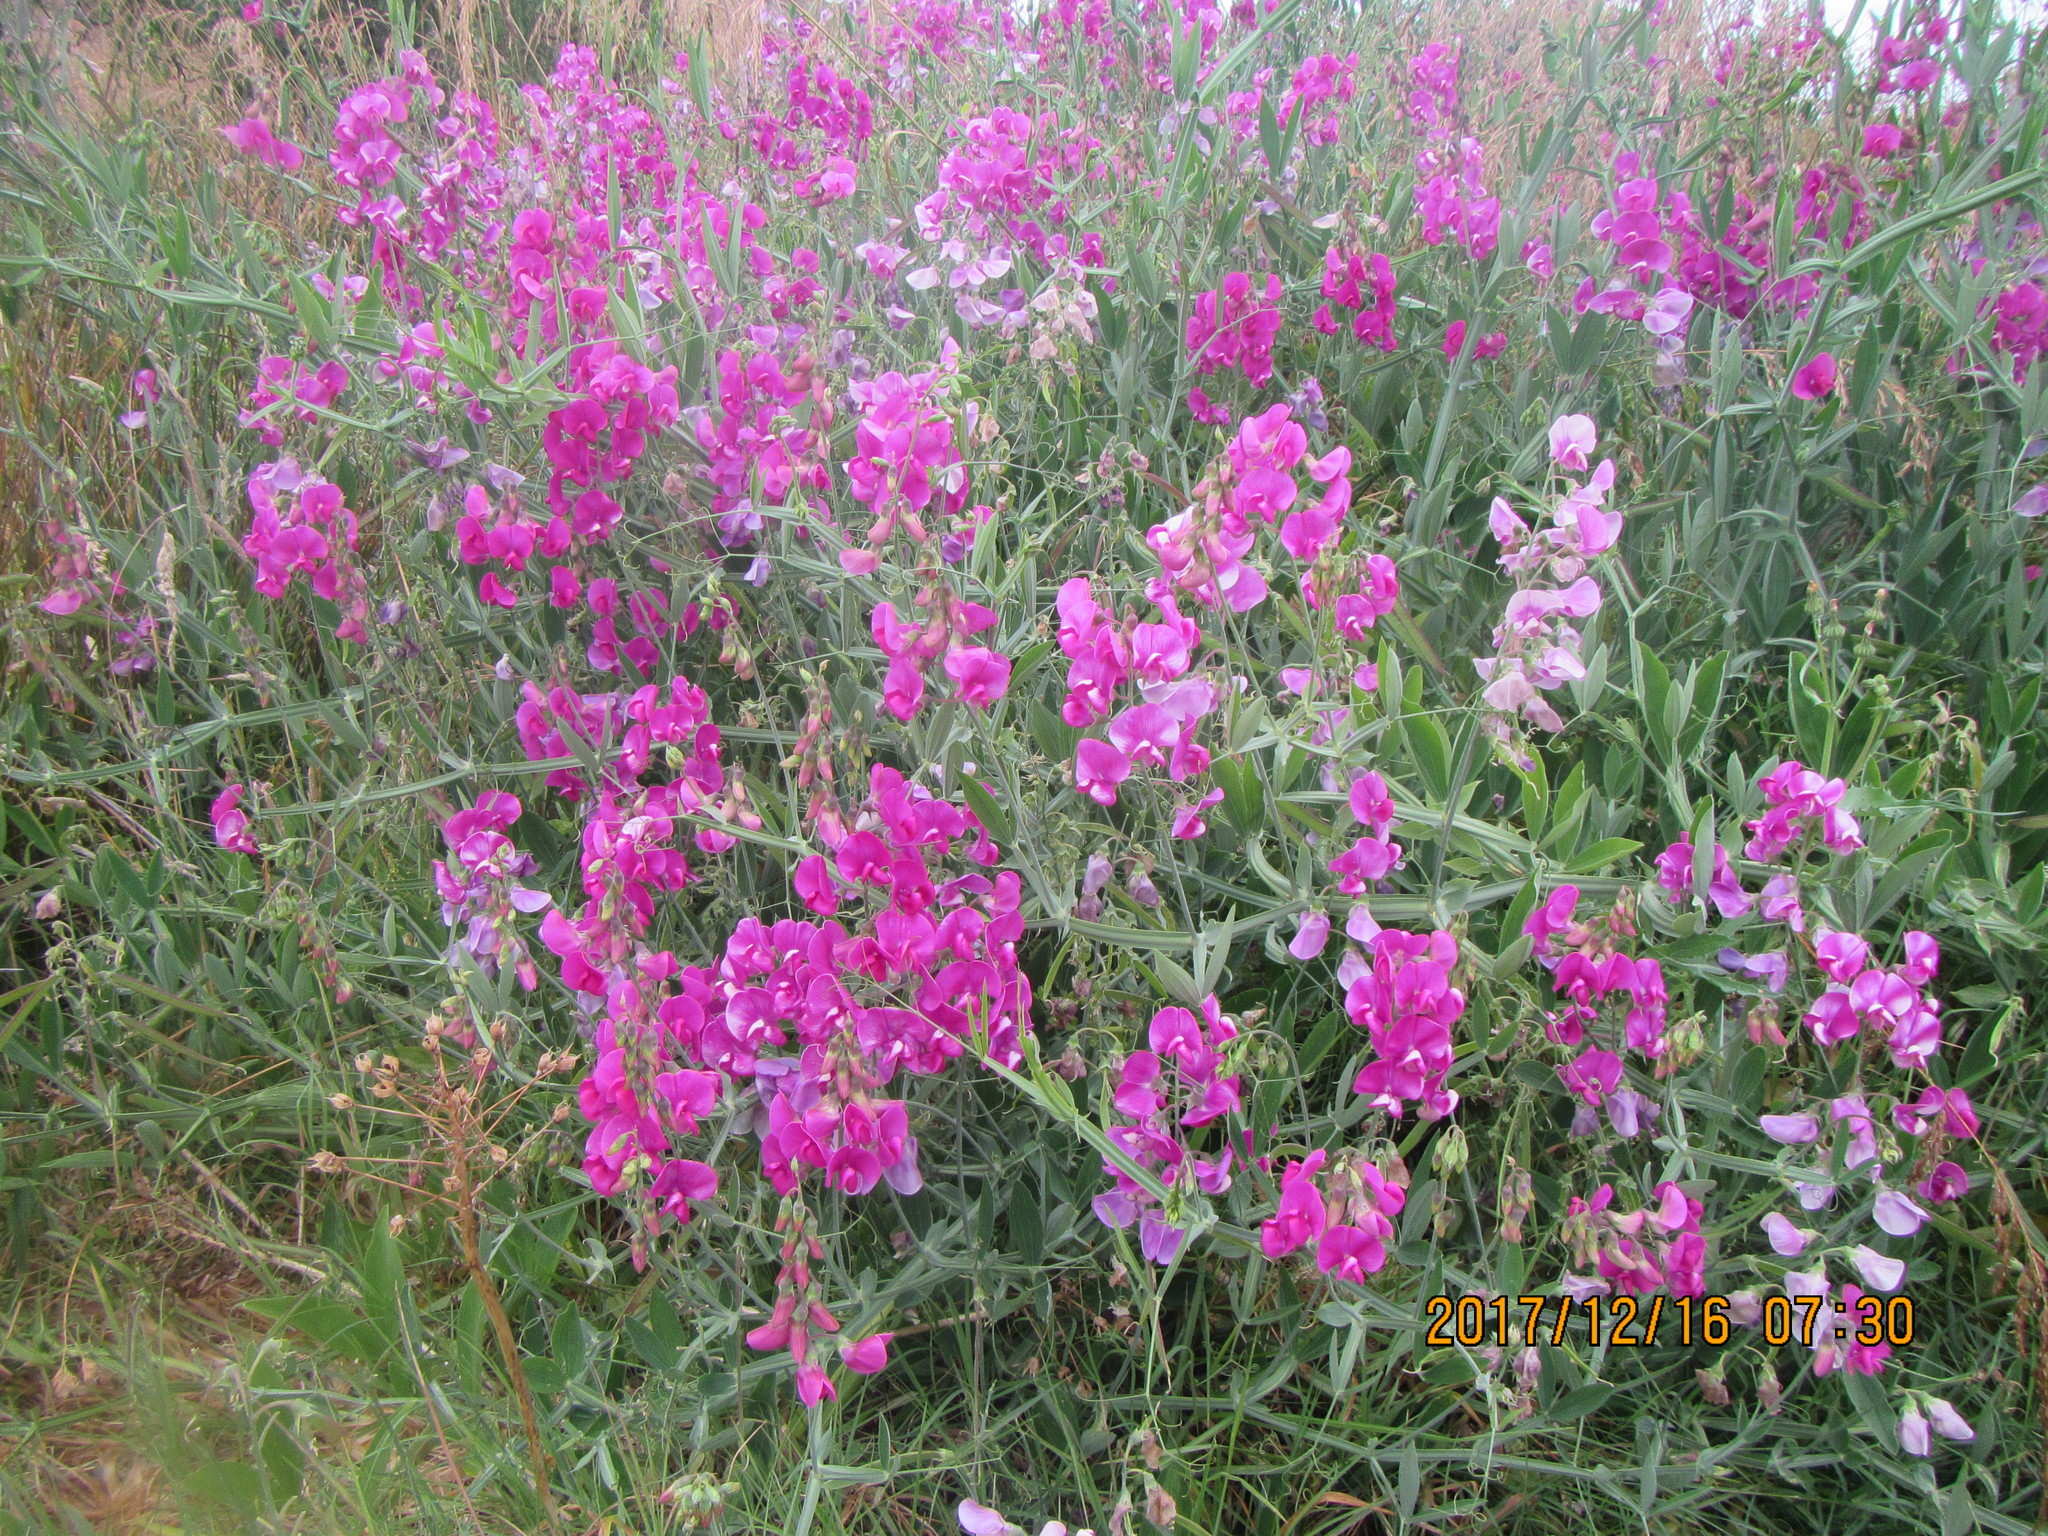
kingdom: Plantae
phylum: Tracheophyta
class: Magnoliopsida
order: Fabales
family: Fabaceae
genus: Lathyrus
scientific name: Lathyrus latifolius
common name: Perennial pea
